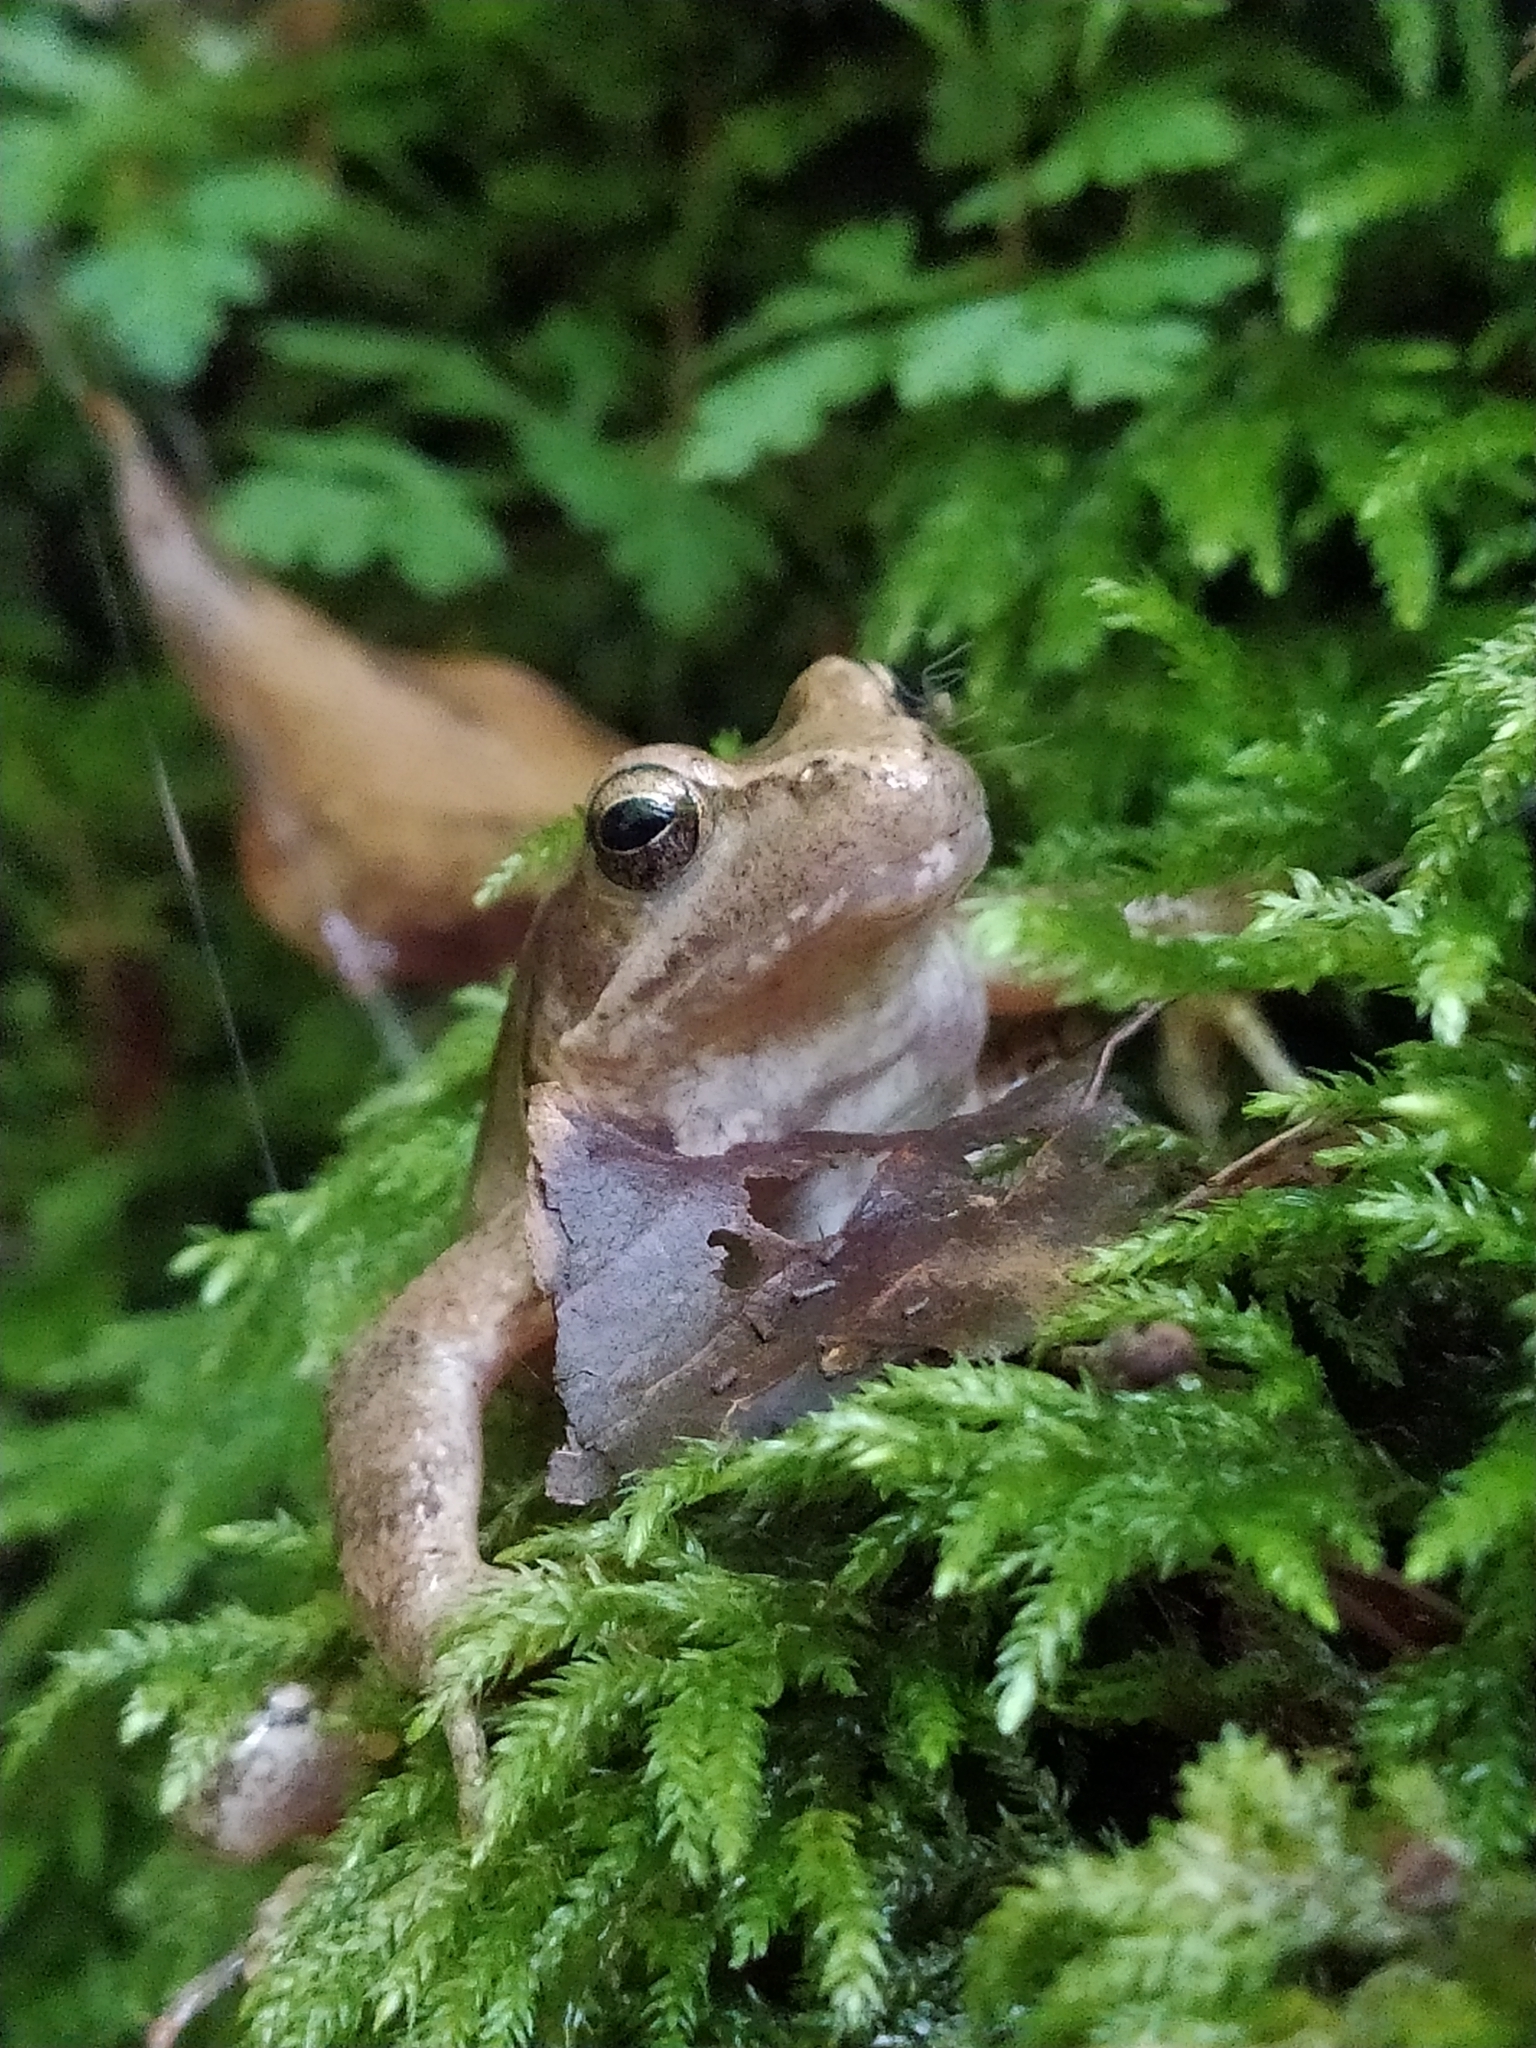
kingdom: Animalia
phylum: Chordata
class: Amphibia
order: Anura
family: Ranidae
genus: Rana
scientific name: Rana italica
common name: Italian stream frog
